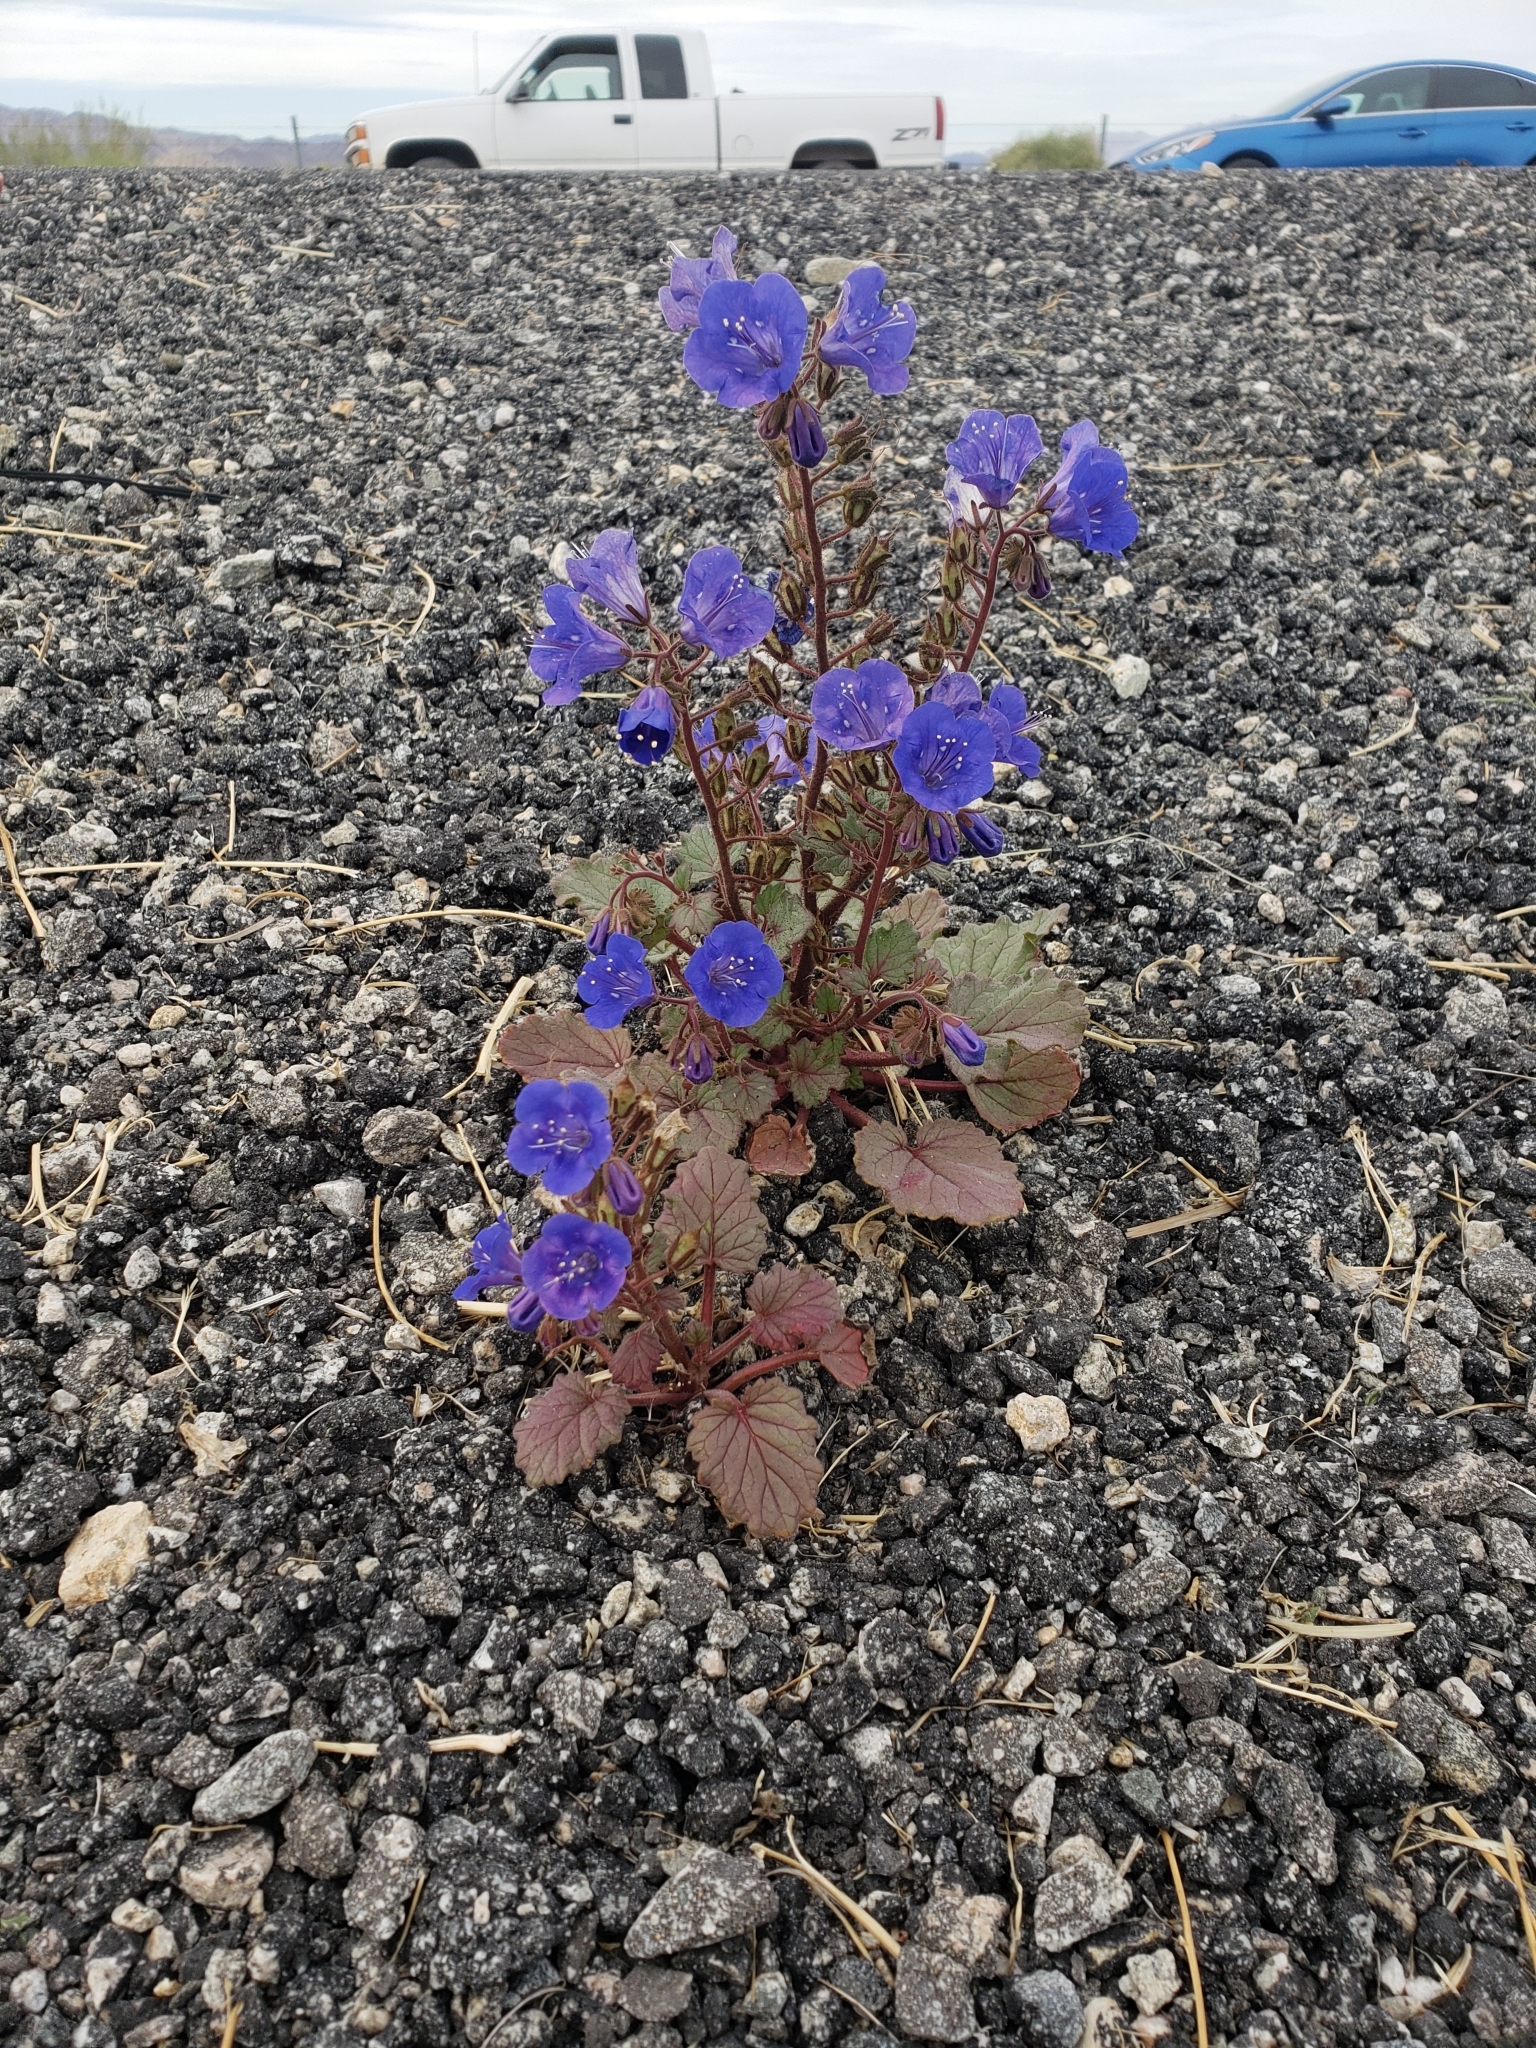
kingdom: Plantae
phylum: Tracheophyta
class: Magnoliopsida
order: Boraginales
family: Hydrophyllaceae
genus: Phacelia
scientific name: Phacelia campanularia
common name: California bluebell
